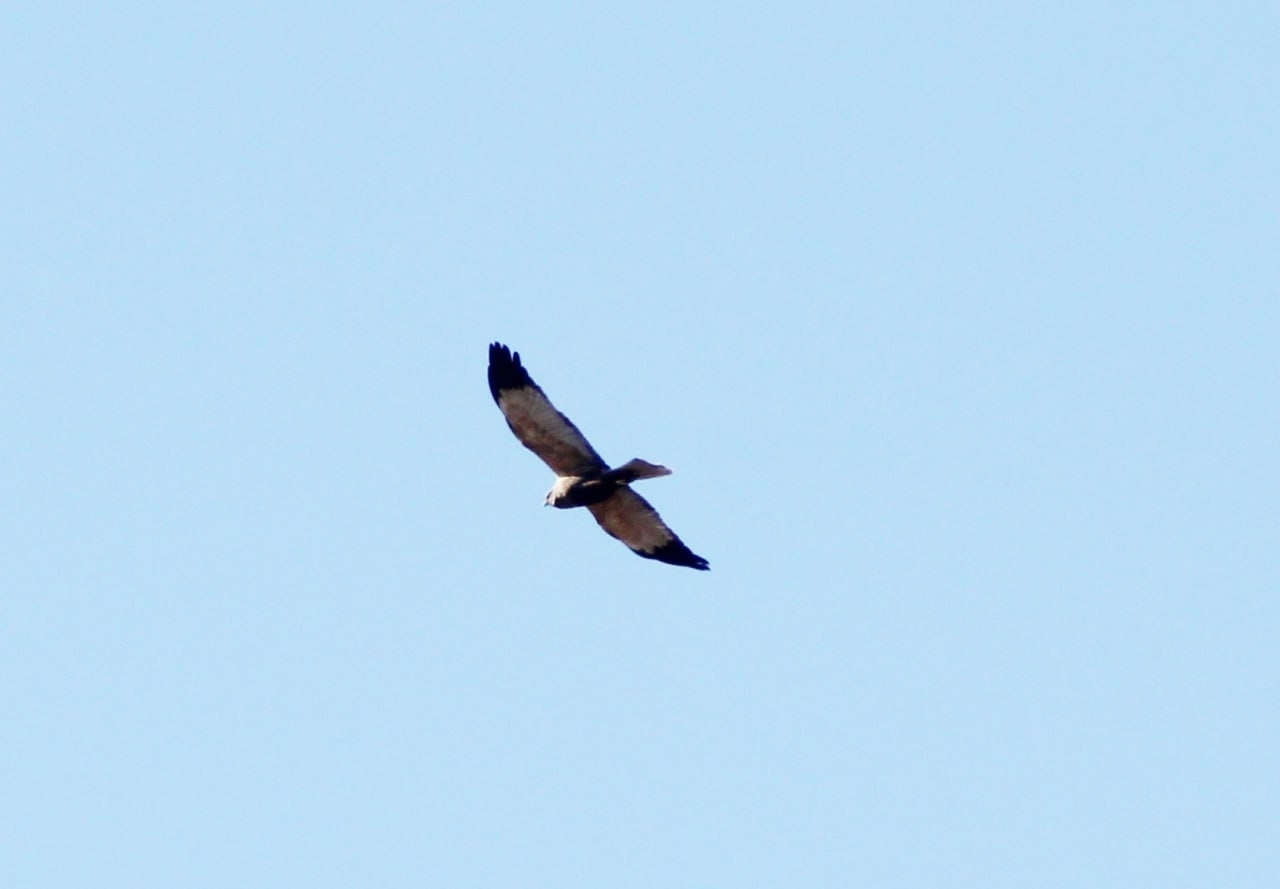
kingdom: Animalia
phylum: Chordata
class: Aves
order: Accipitriformes
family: Accipitridae
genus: Circus
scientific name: Circus aeruginosus
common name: Western marsh harrier
